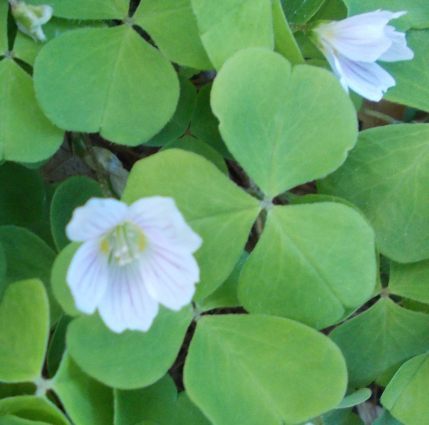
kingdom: Plantae
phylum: Tracheophyta
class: Magnoliopsida
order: Oxalidales
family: Oxalidaceae
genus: Oxalis
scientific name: Oxalis acetosella
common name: Wood-sorrel
